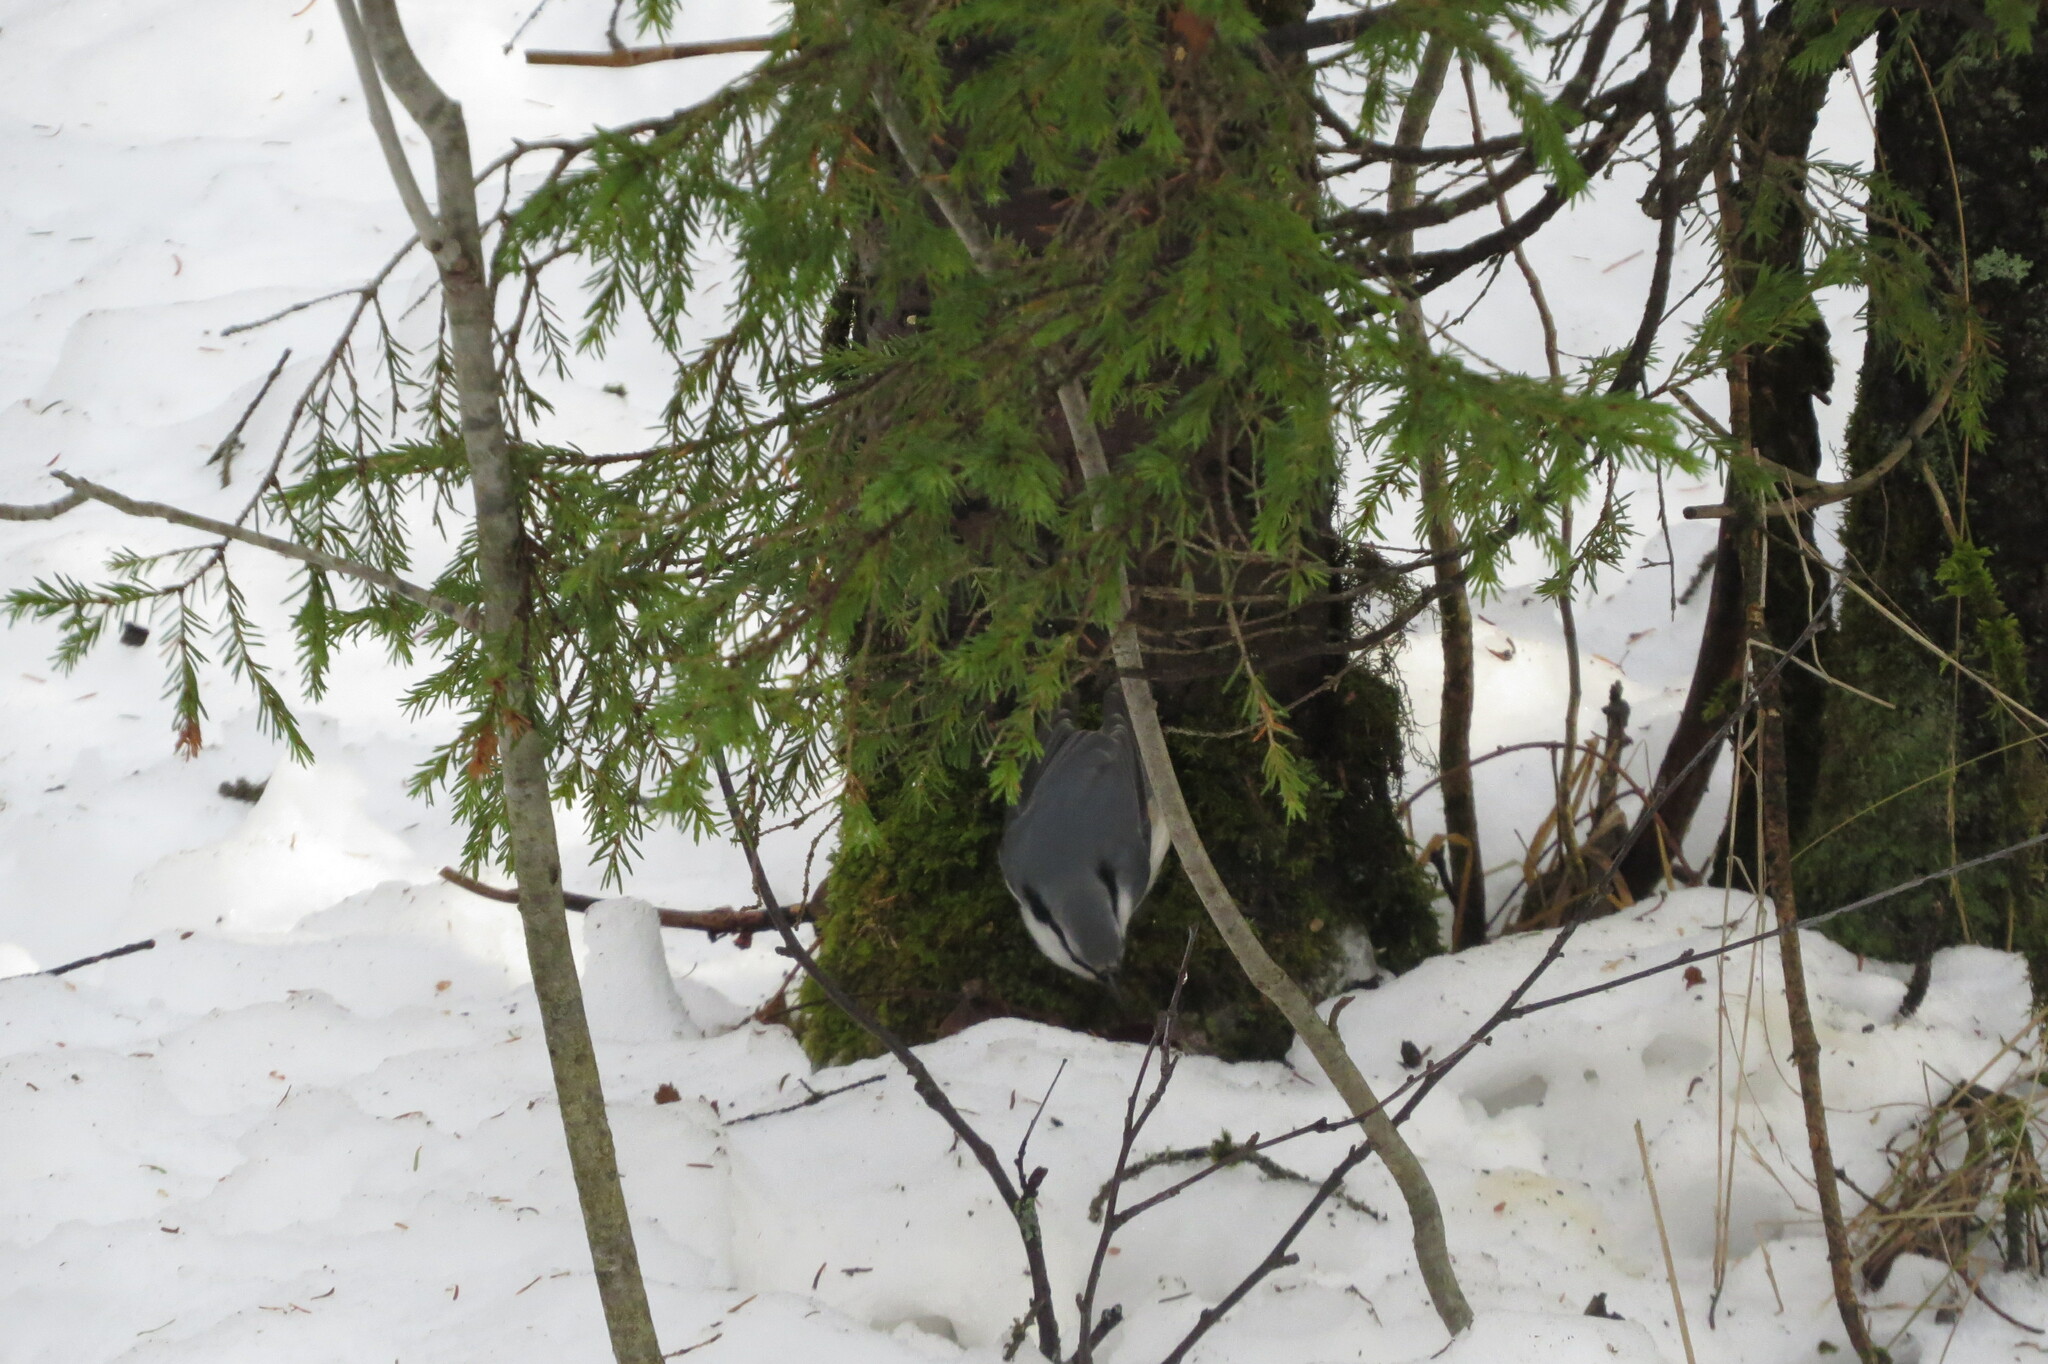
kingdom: Animalia
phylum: Chordata
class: Aves
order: Passeriformes
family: Sittidae
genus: Sitta
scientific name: Sitta europaea
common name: Eurasian nuthatch
